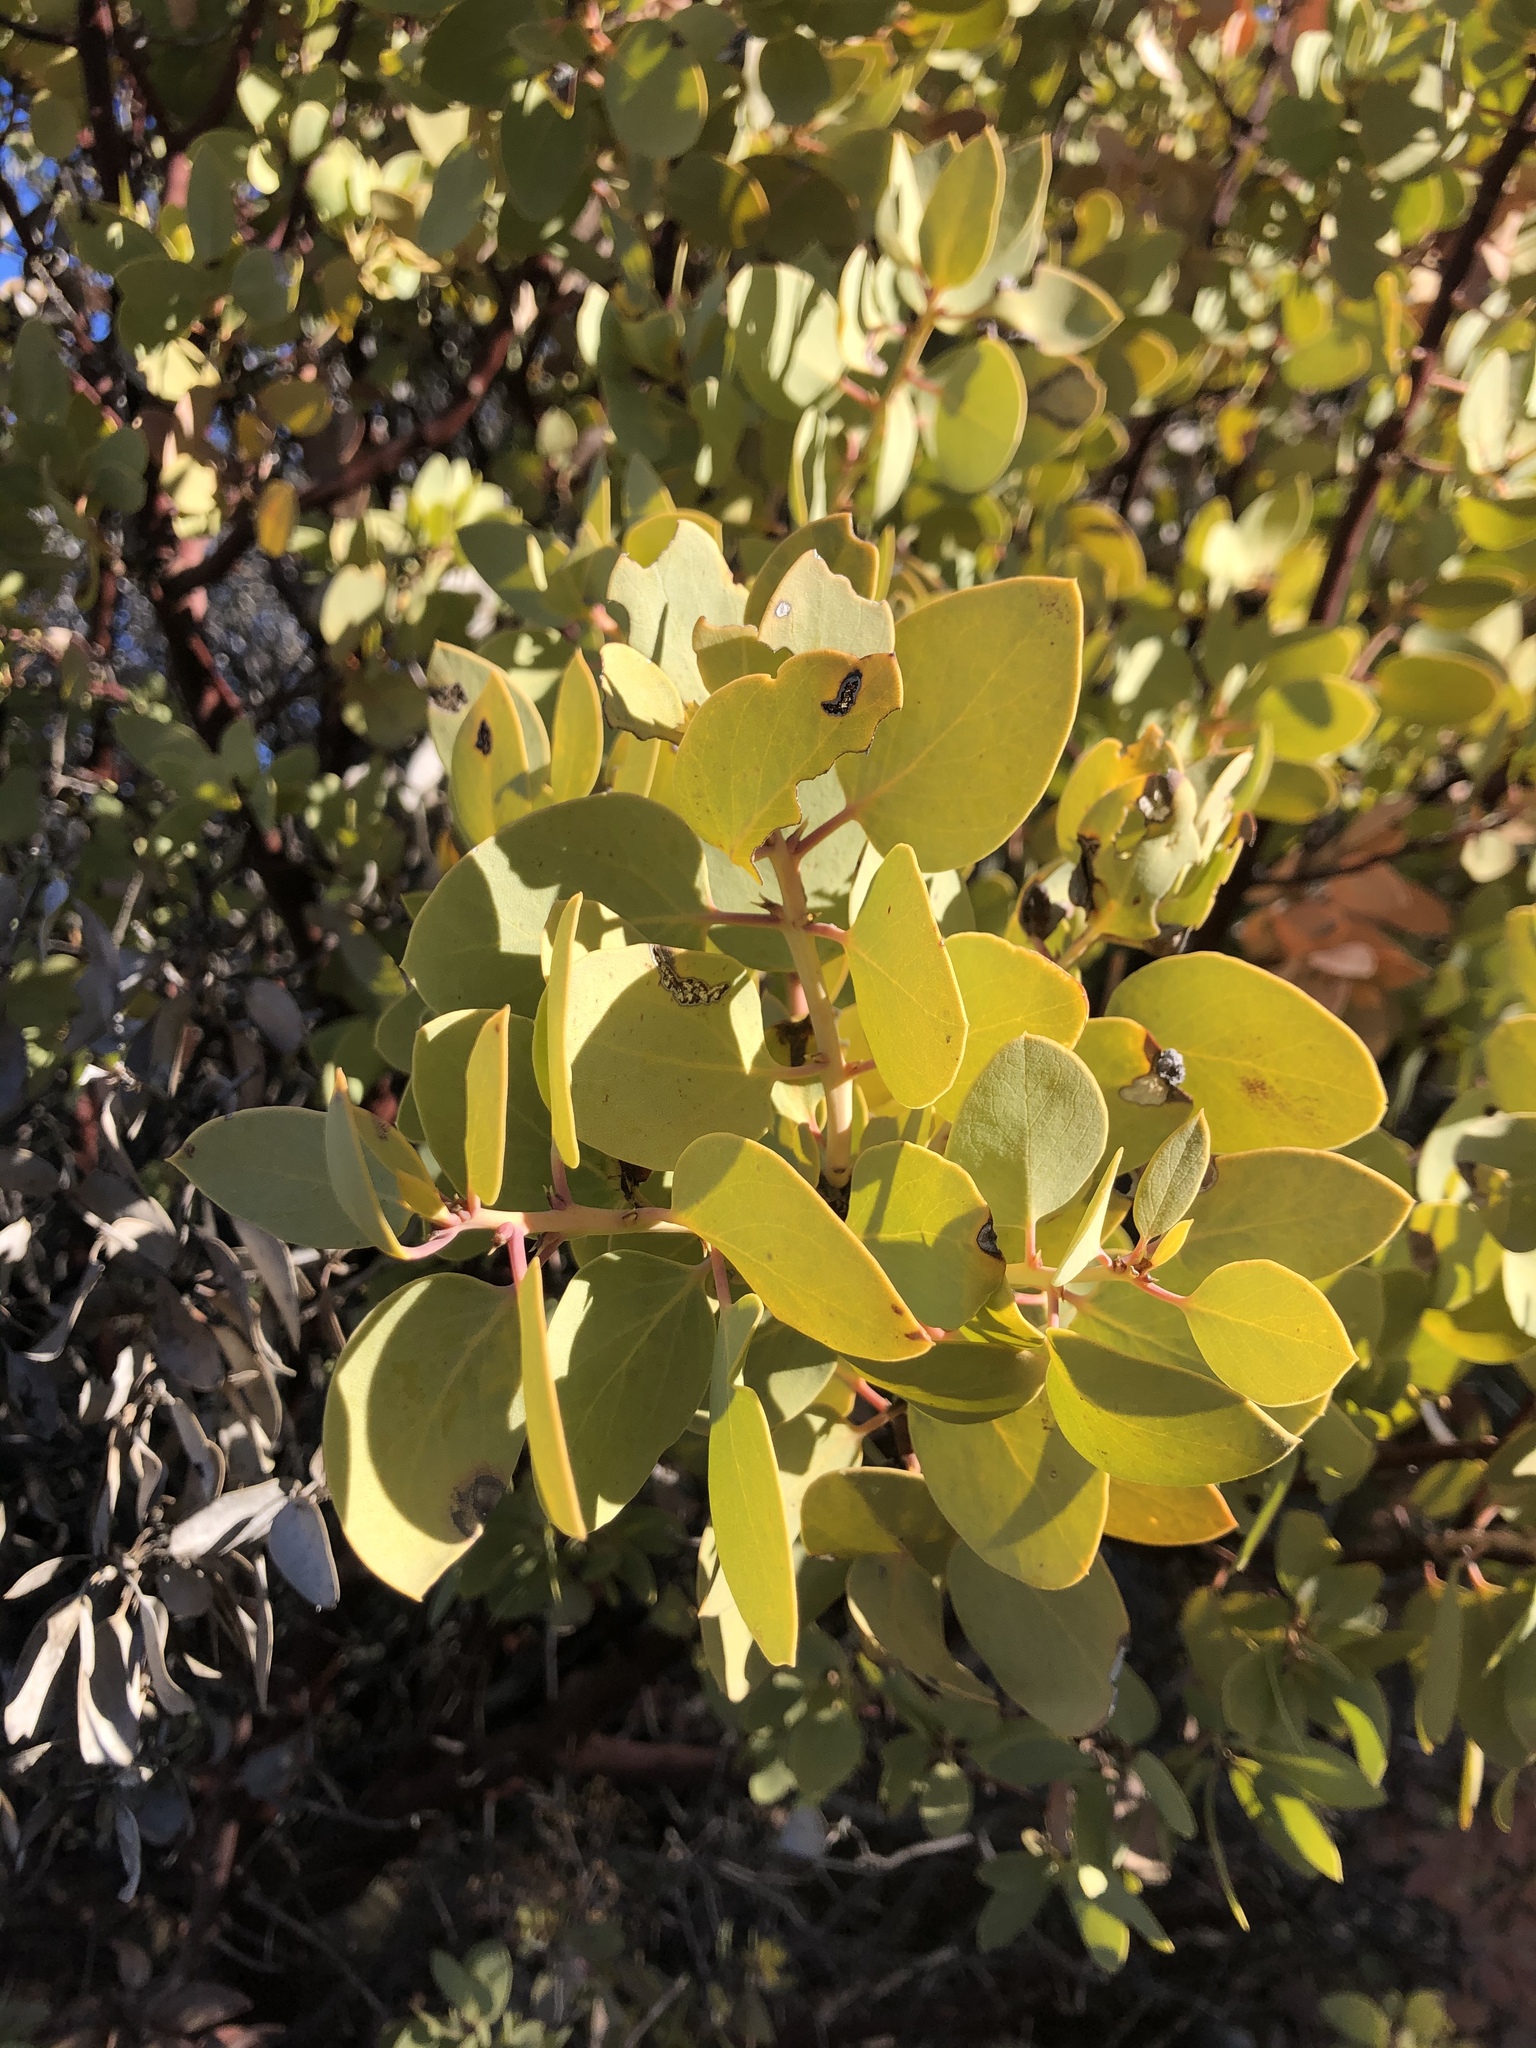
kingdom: Plantae
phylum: Tracheophyta
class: Magnoliopsida
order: Ericales
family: Ericaceae
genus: Arctostaphylos
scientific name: Arctostaphylos glauca
